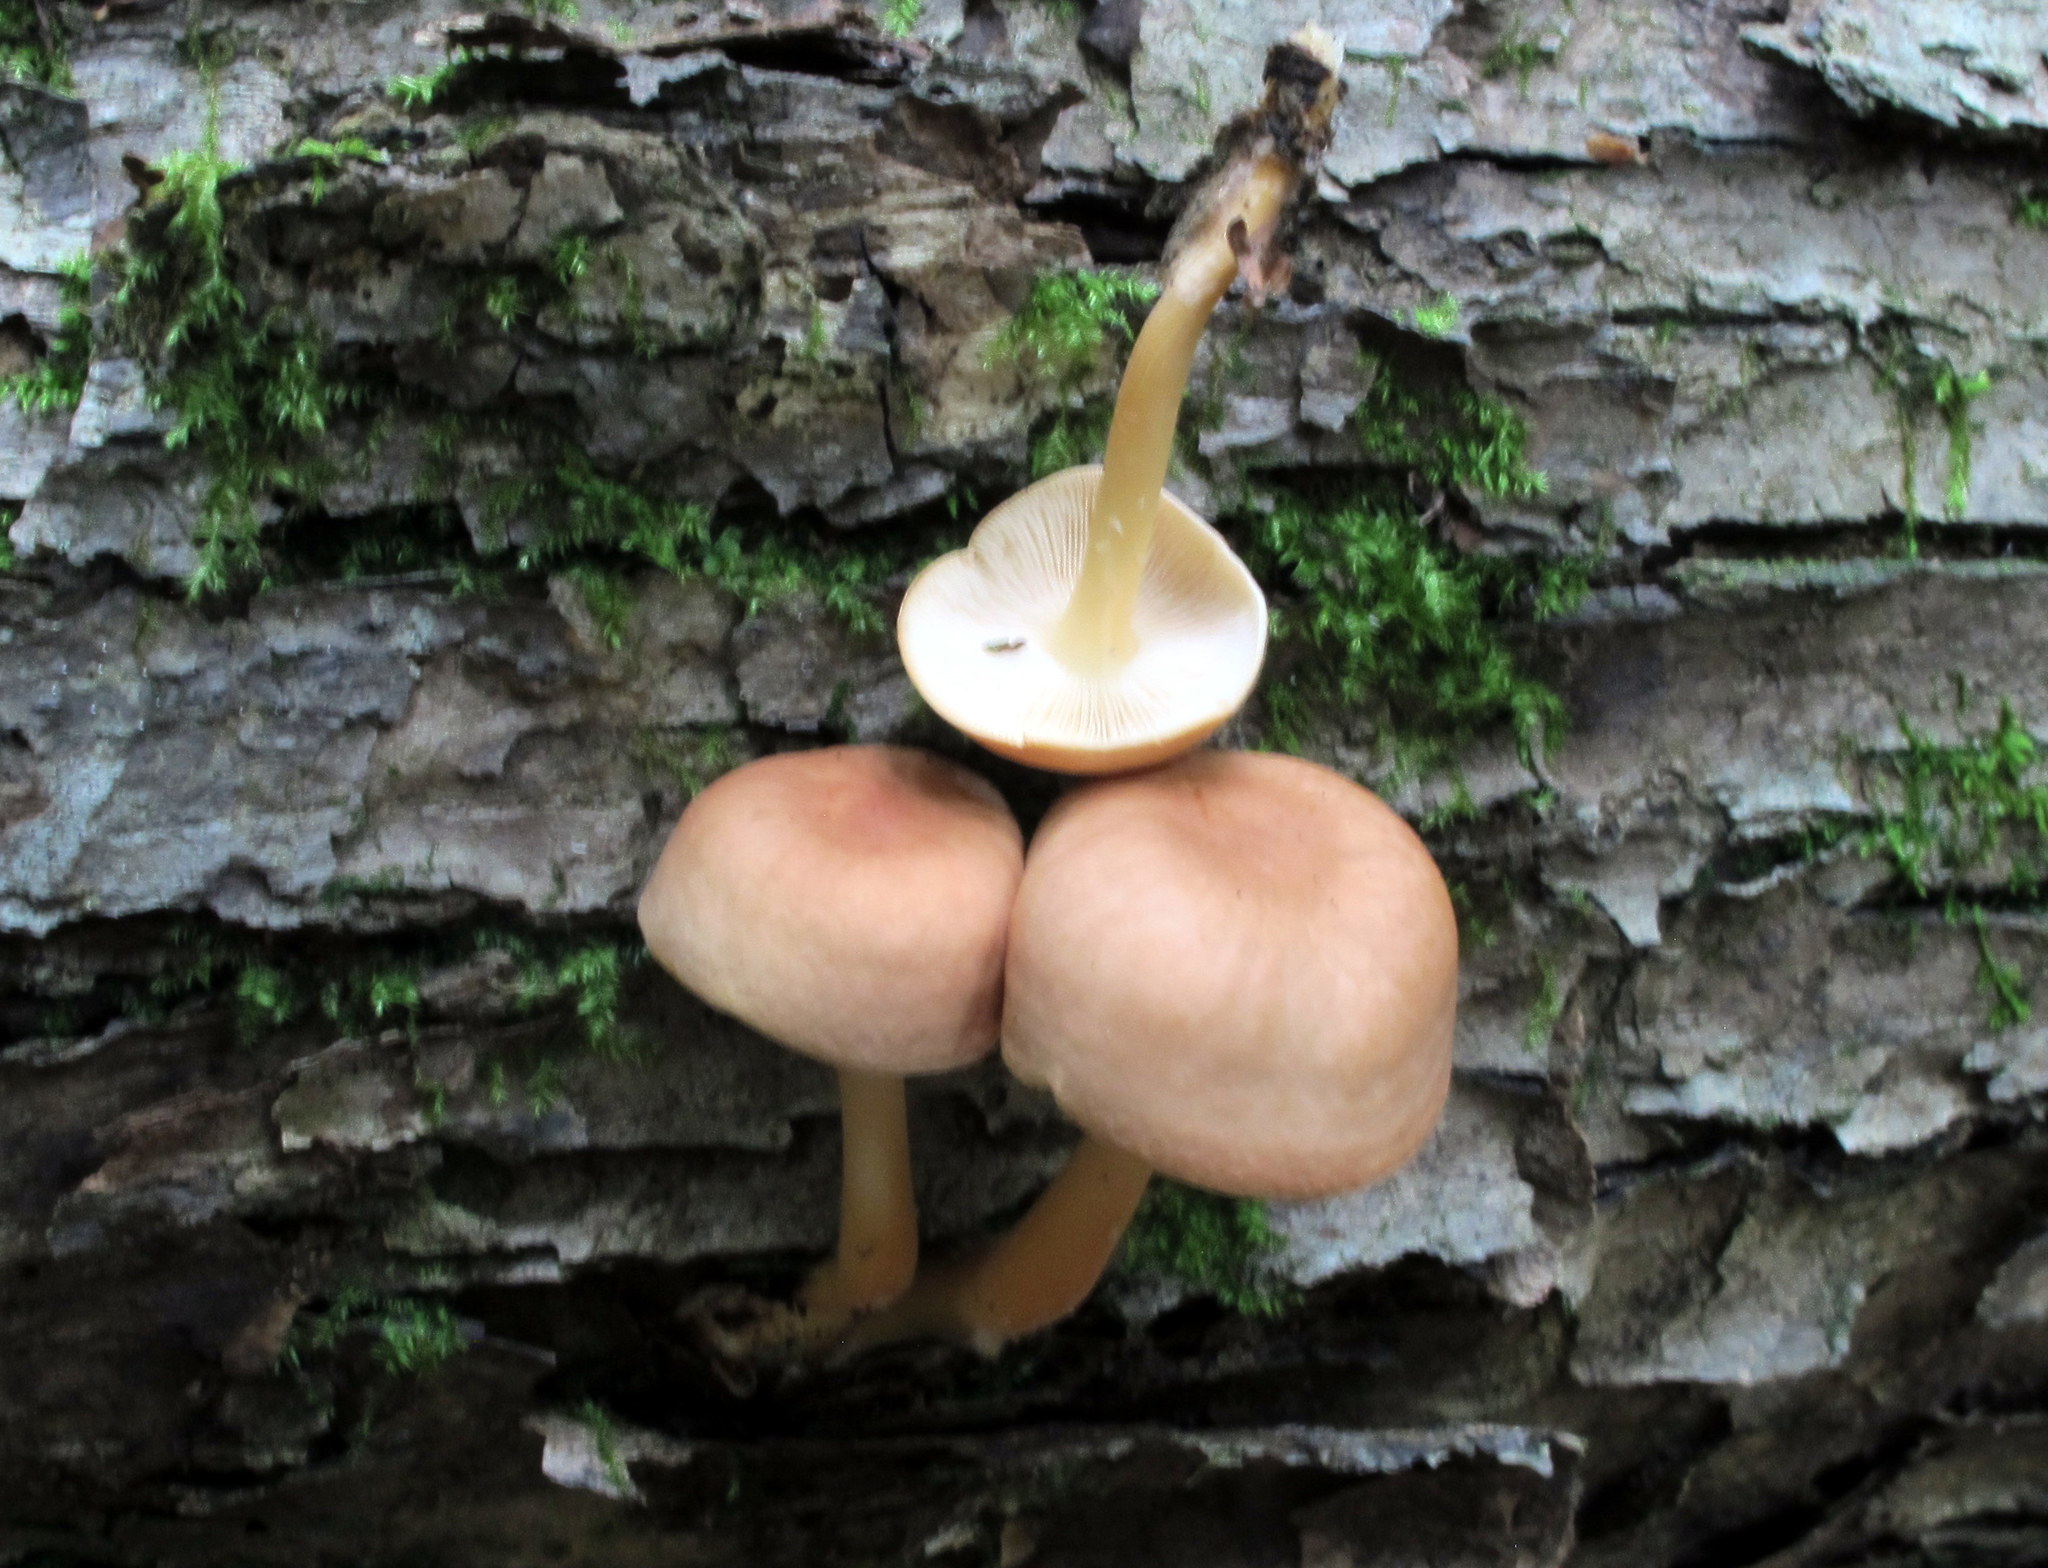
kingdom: Fungi
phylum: Basidiomycota
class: Agaricomycetes
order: Agaricales
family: Omphalotaceae
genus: Gymnopus
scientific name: Gymnopus dryophilus
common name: Penny top
